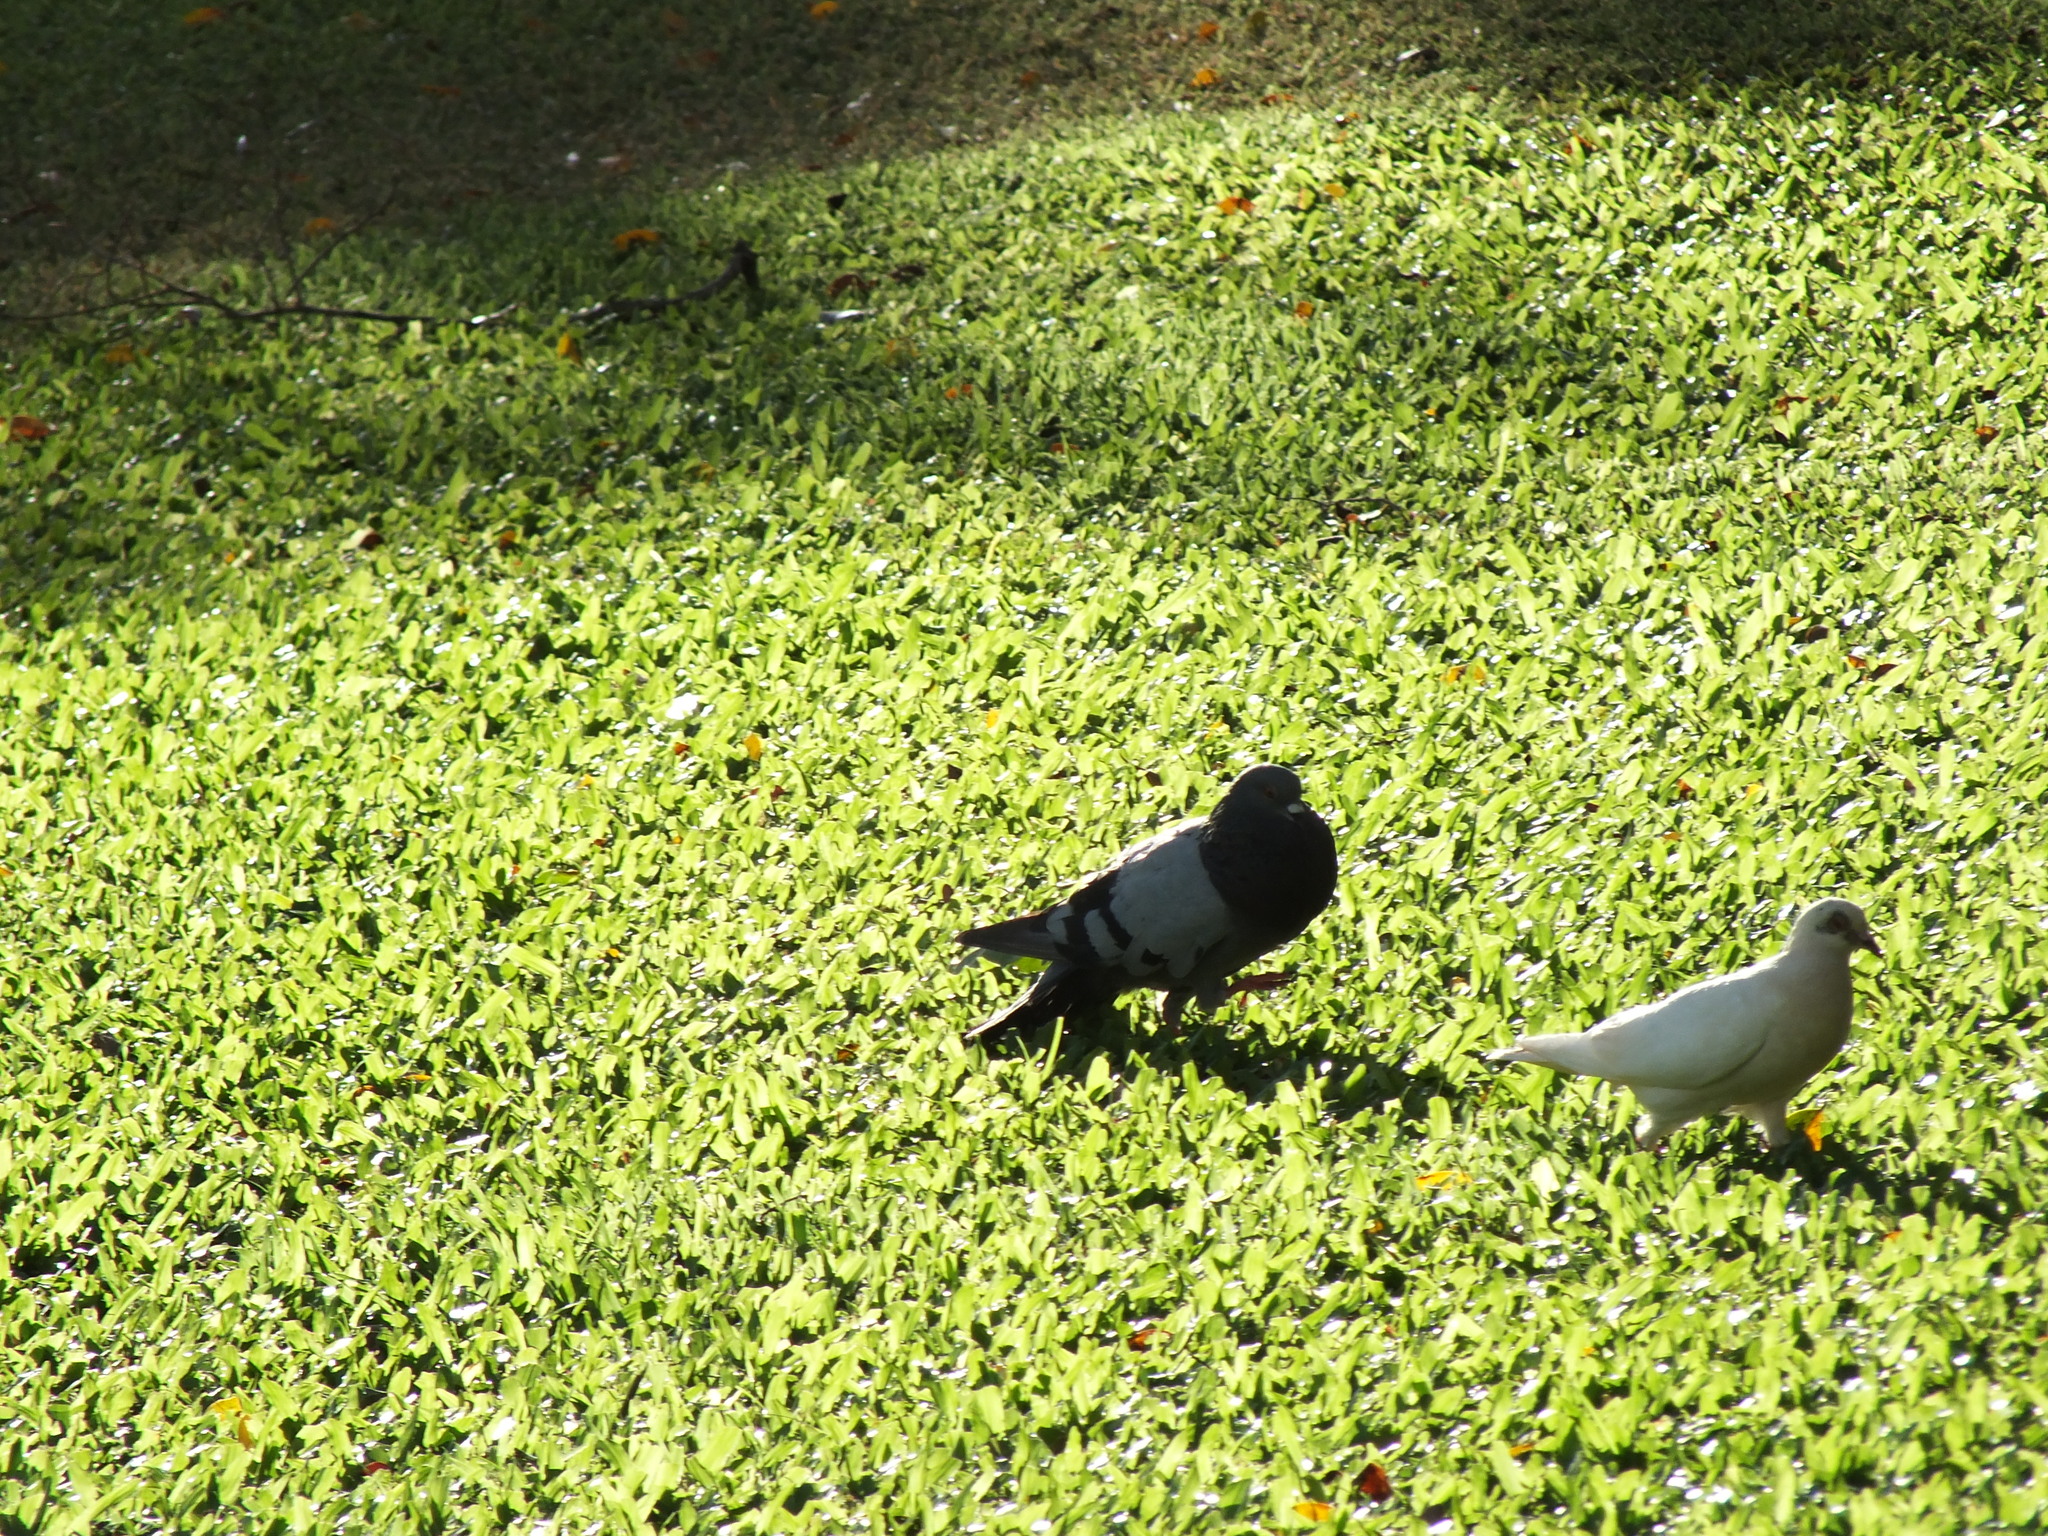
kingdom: Animalia
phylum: Chordata
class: Aves
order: Columbiformes
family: Columbidae
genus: Columba
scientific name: Columba livia
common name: Rock pigeon
